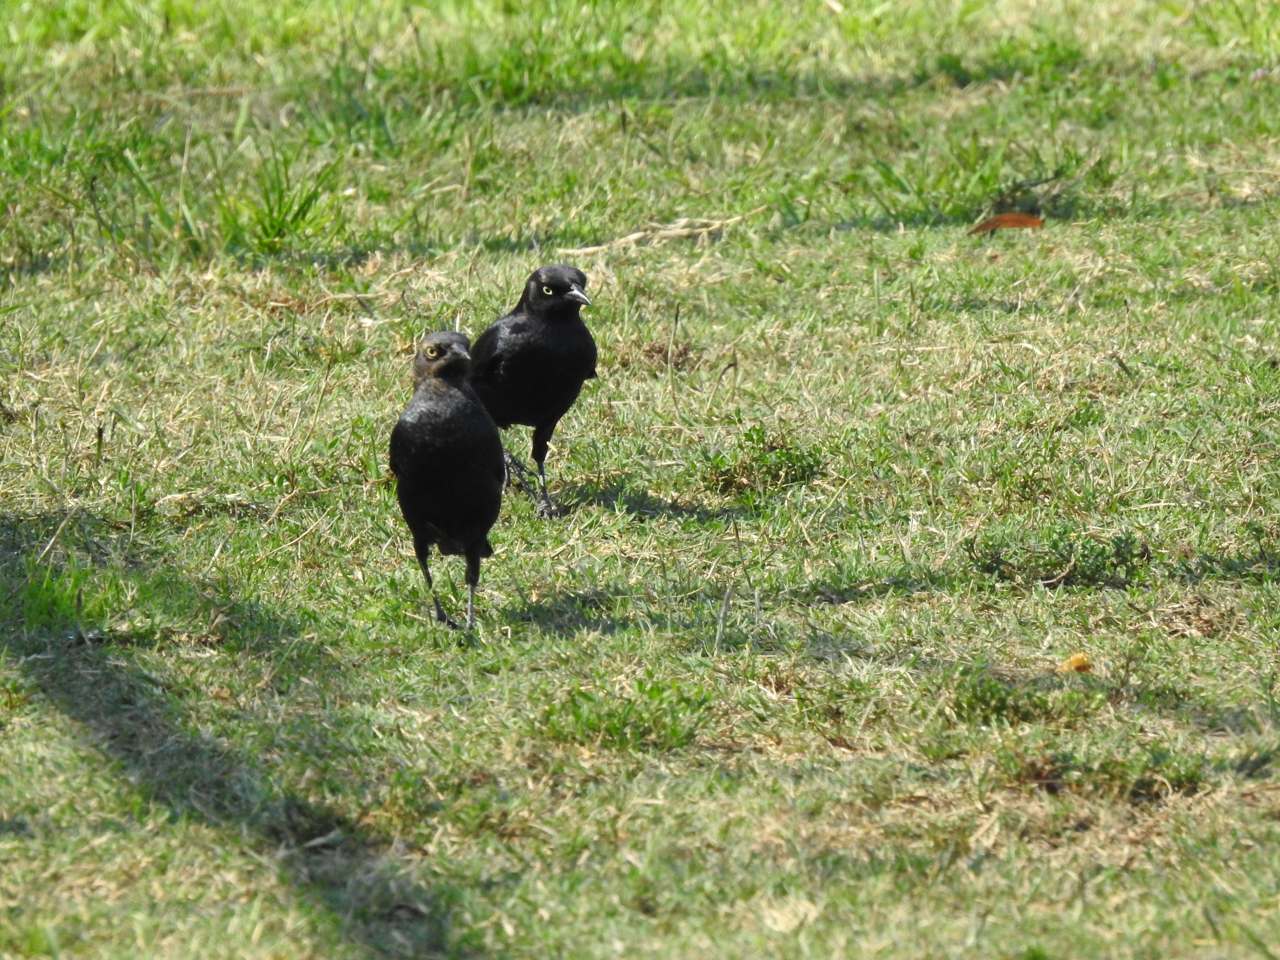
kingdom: Animalia
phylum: Chordata
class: Aves
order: Passeriformes
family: Icteridae
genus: Euphagus
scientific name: Euphagus cyanocephalus
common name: Brewer's blackbird
